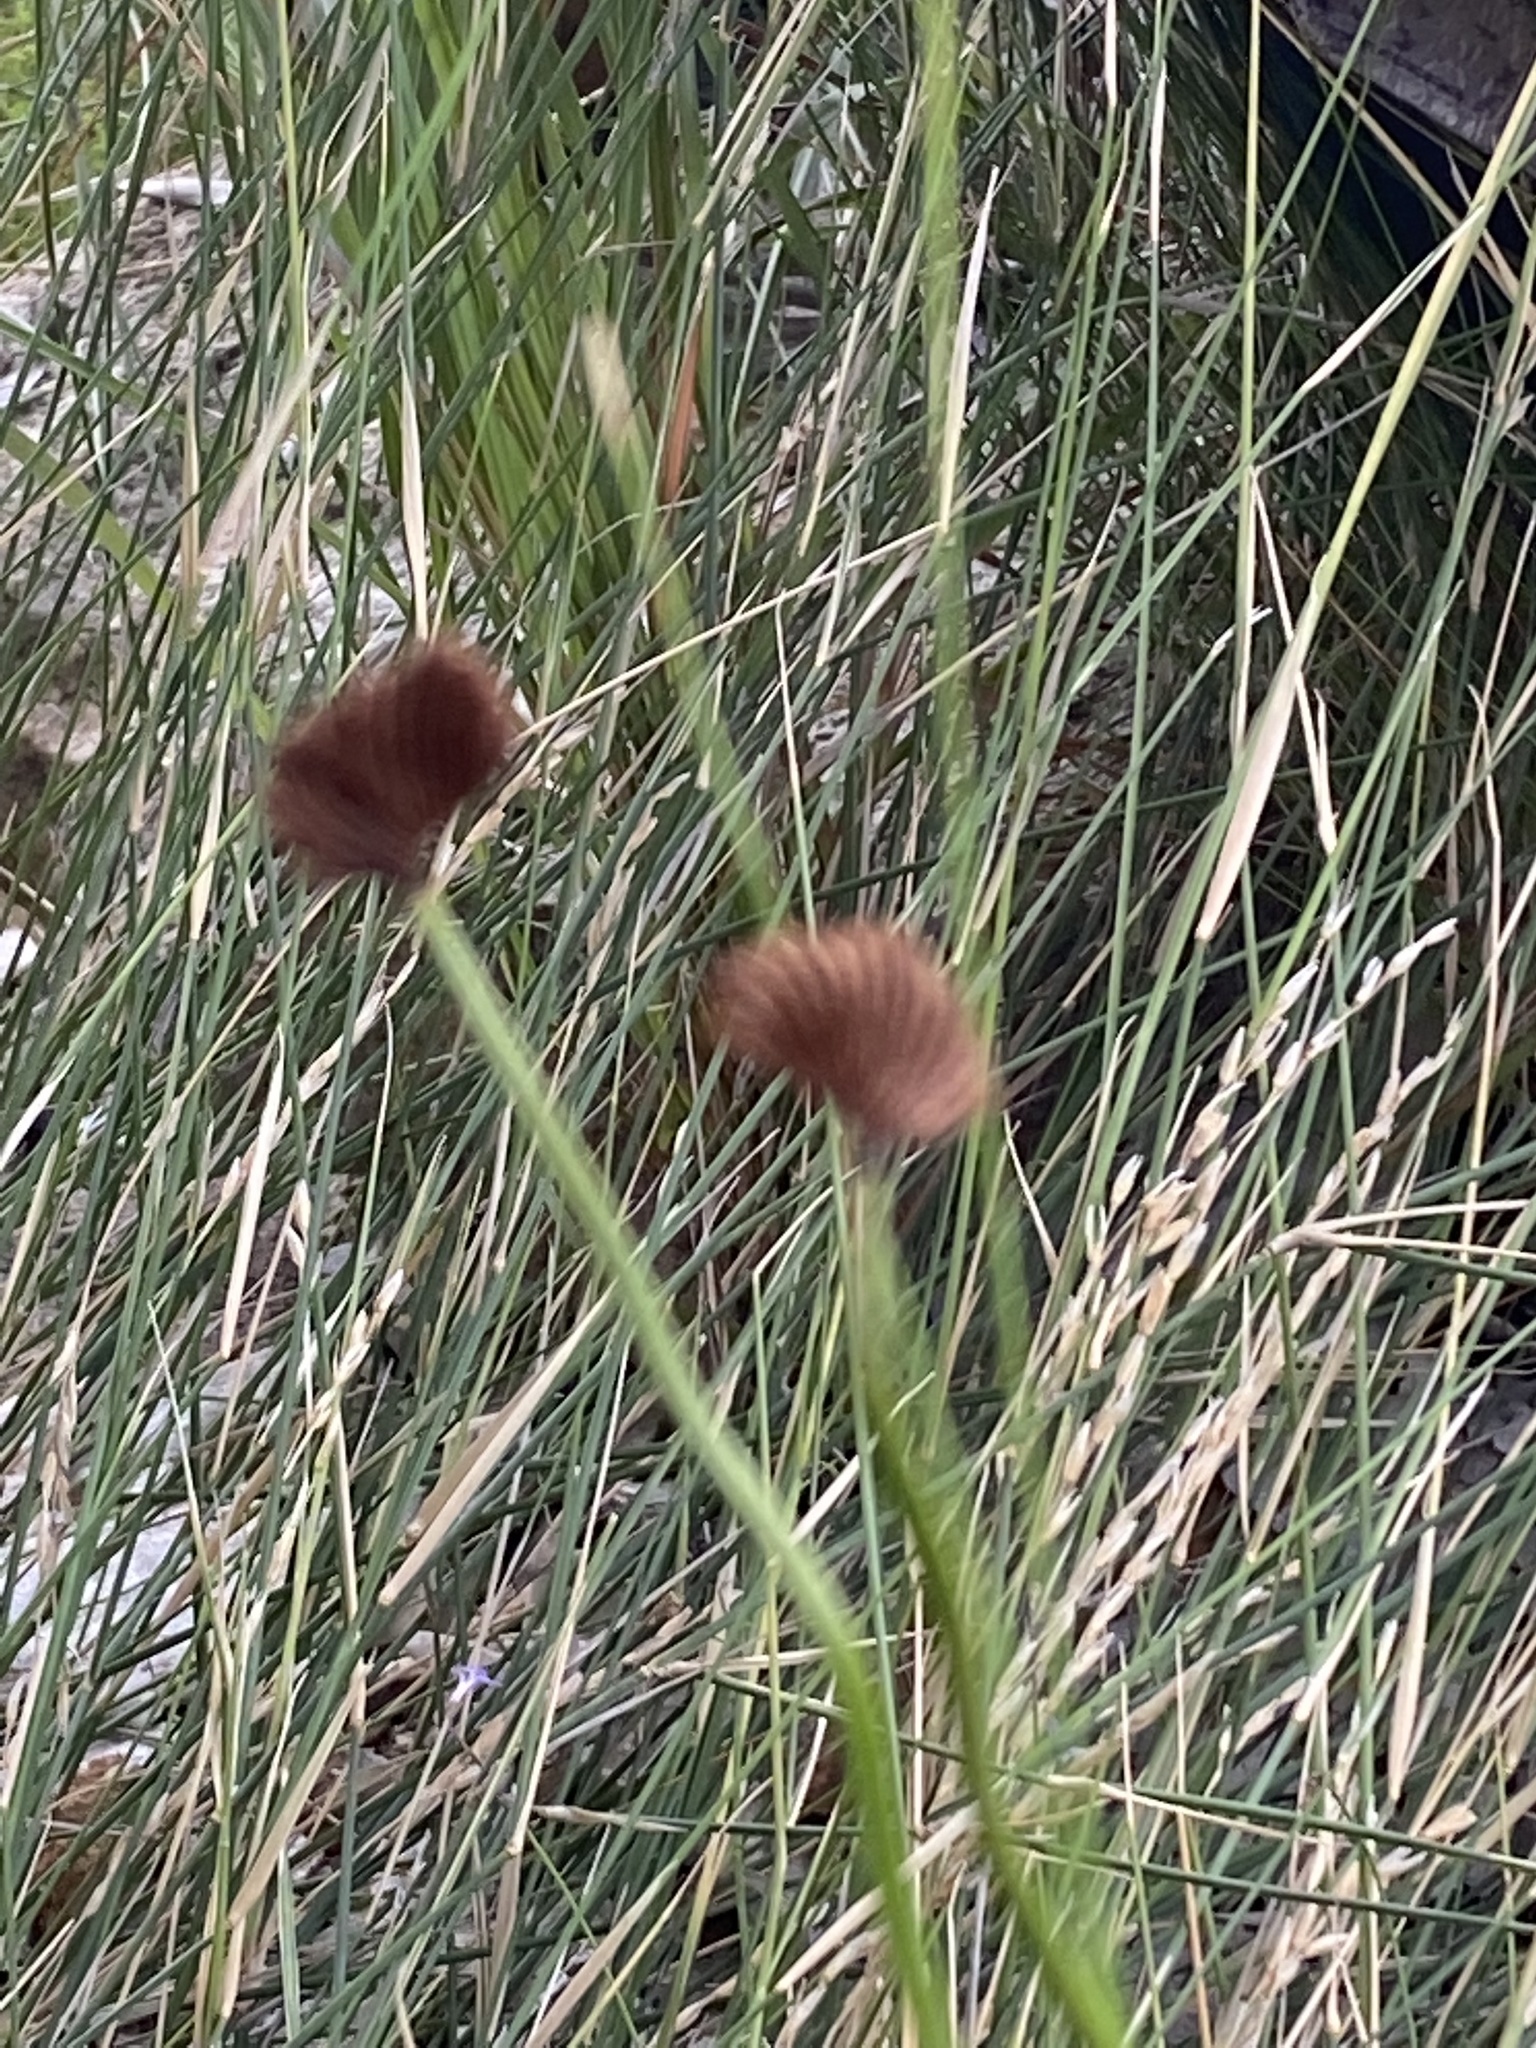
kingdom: Plantae
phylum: Tracheophyta
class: Polypodiopsida
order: Schizaeales
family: Schizaeaceae
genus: Schizaea
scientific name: Schizaea pectinata
